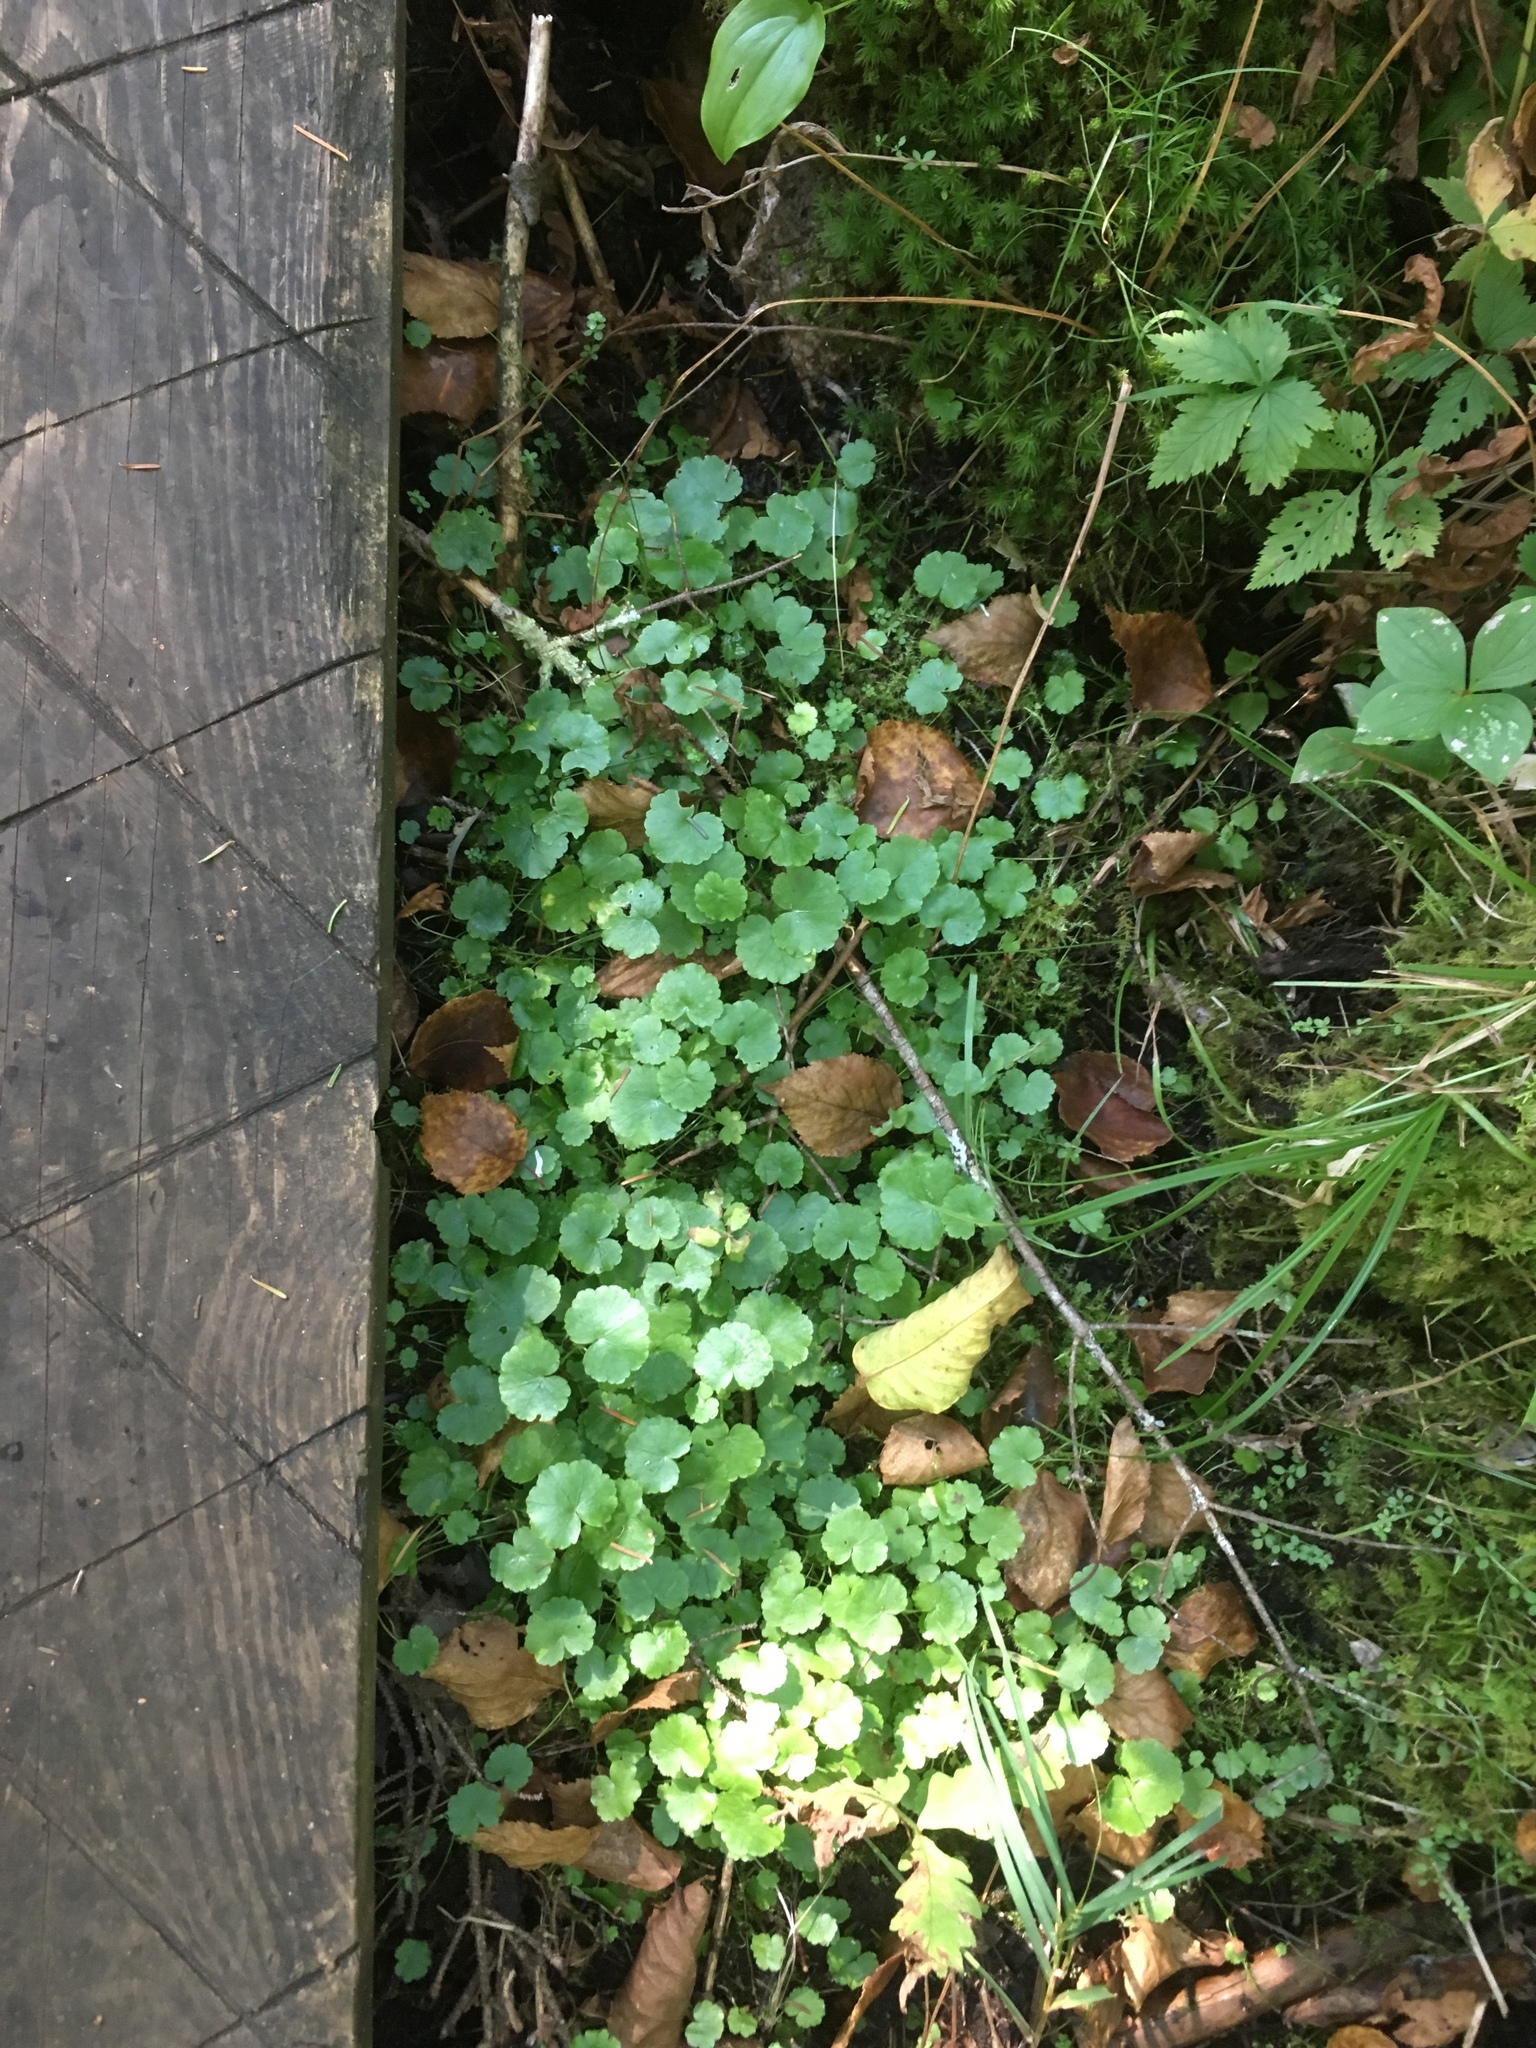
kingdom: Plantae
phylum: Tracheophyta
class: Magnoliopsida
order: Apiales
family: Araliaceae
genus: Hydrocotyle
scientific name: Hydrocotyle americana
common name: American water-pennywort
